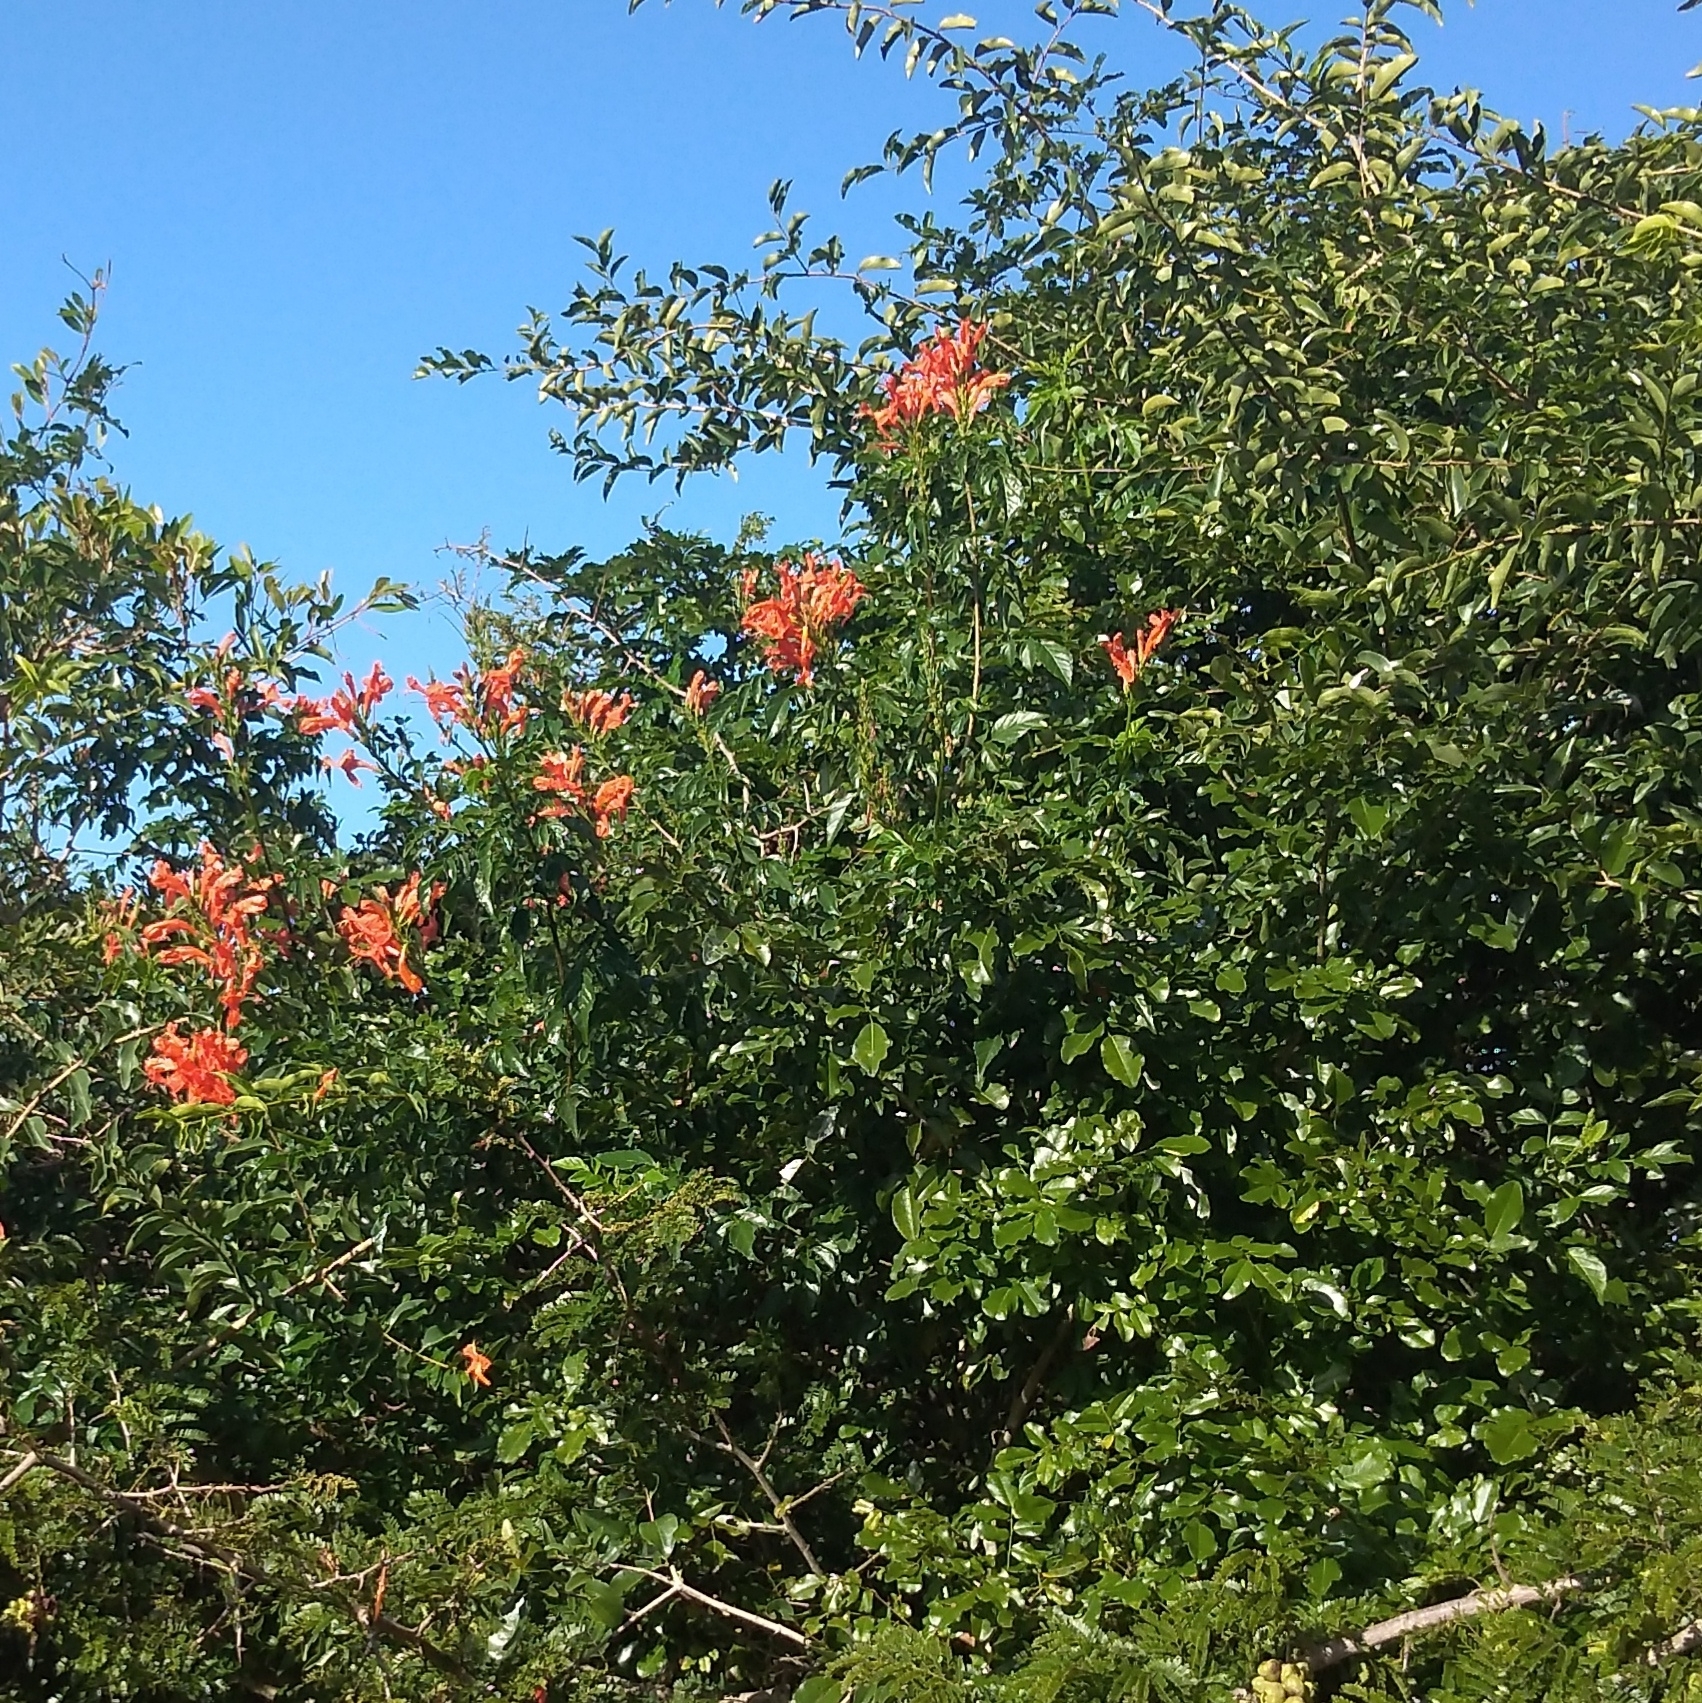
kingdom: Plantae
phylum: Tracheophyta
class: Magnoliopsida
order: Lamiales
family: Bignoniaceae
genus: Tecomaria
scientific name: Tecomaria capensis
